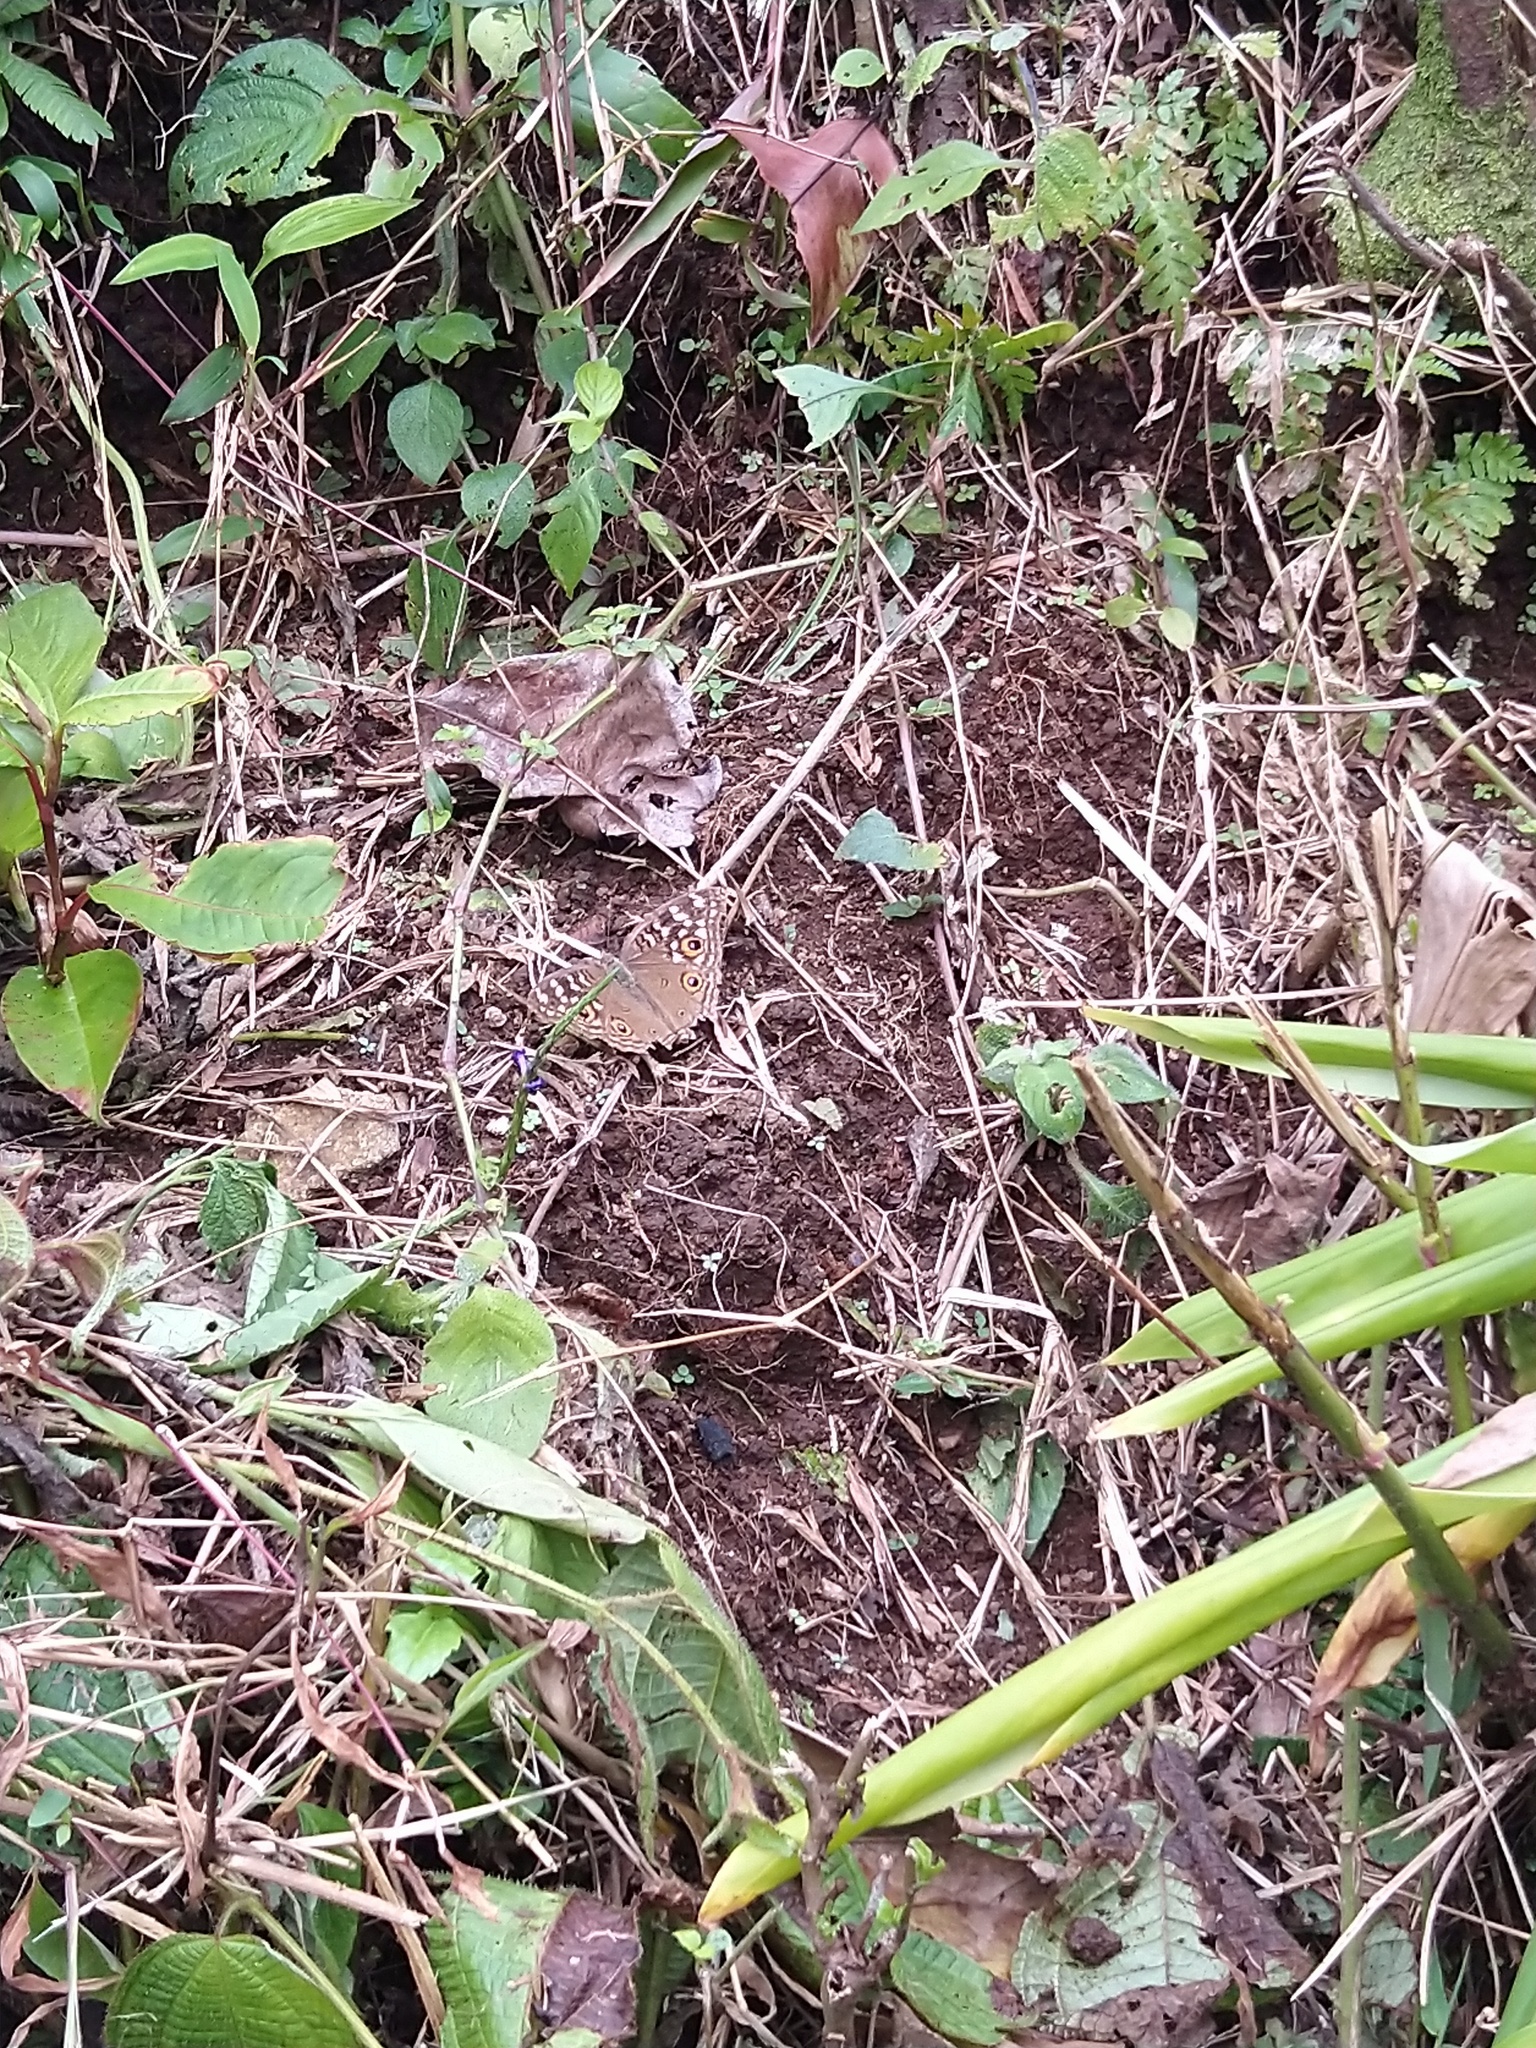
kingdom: Animalia
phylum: Arthropoda
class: Insecta
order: Lepidoptera
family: Nymphalidae
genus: Junonia
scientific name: Junonia lemonias
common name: Lemon pansy
